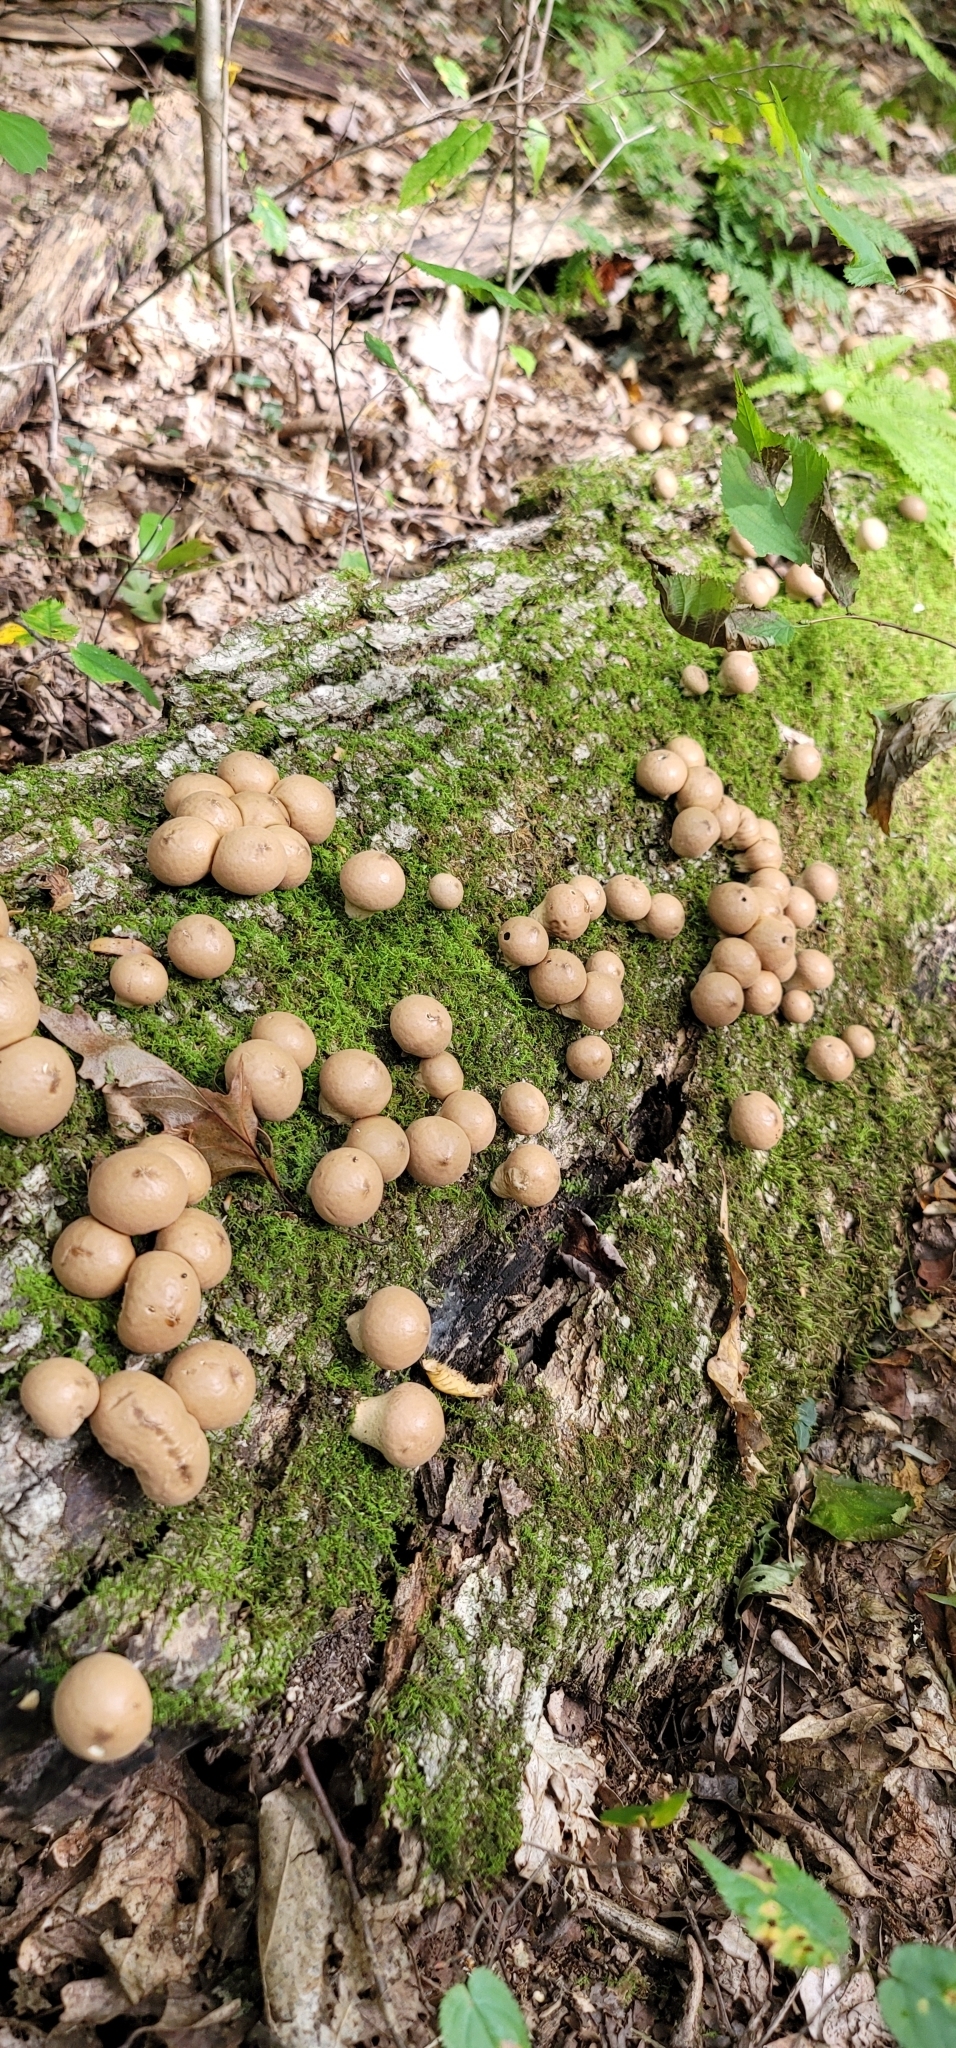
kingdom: Fungi
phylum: Basidiomycota
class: Agaricomycetes
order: Agaricales
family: Lycoperdaceae
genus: Apioperdon
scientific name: Apioperdon pyriforme
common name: Pear-shaped puffball
